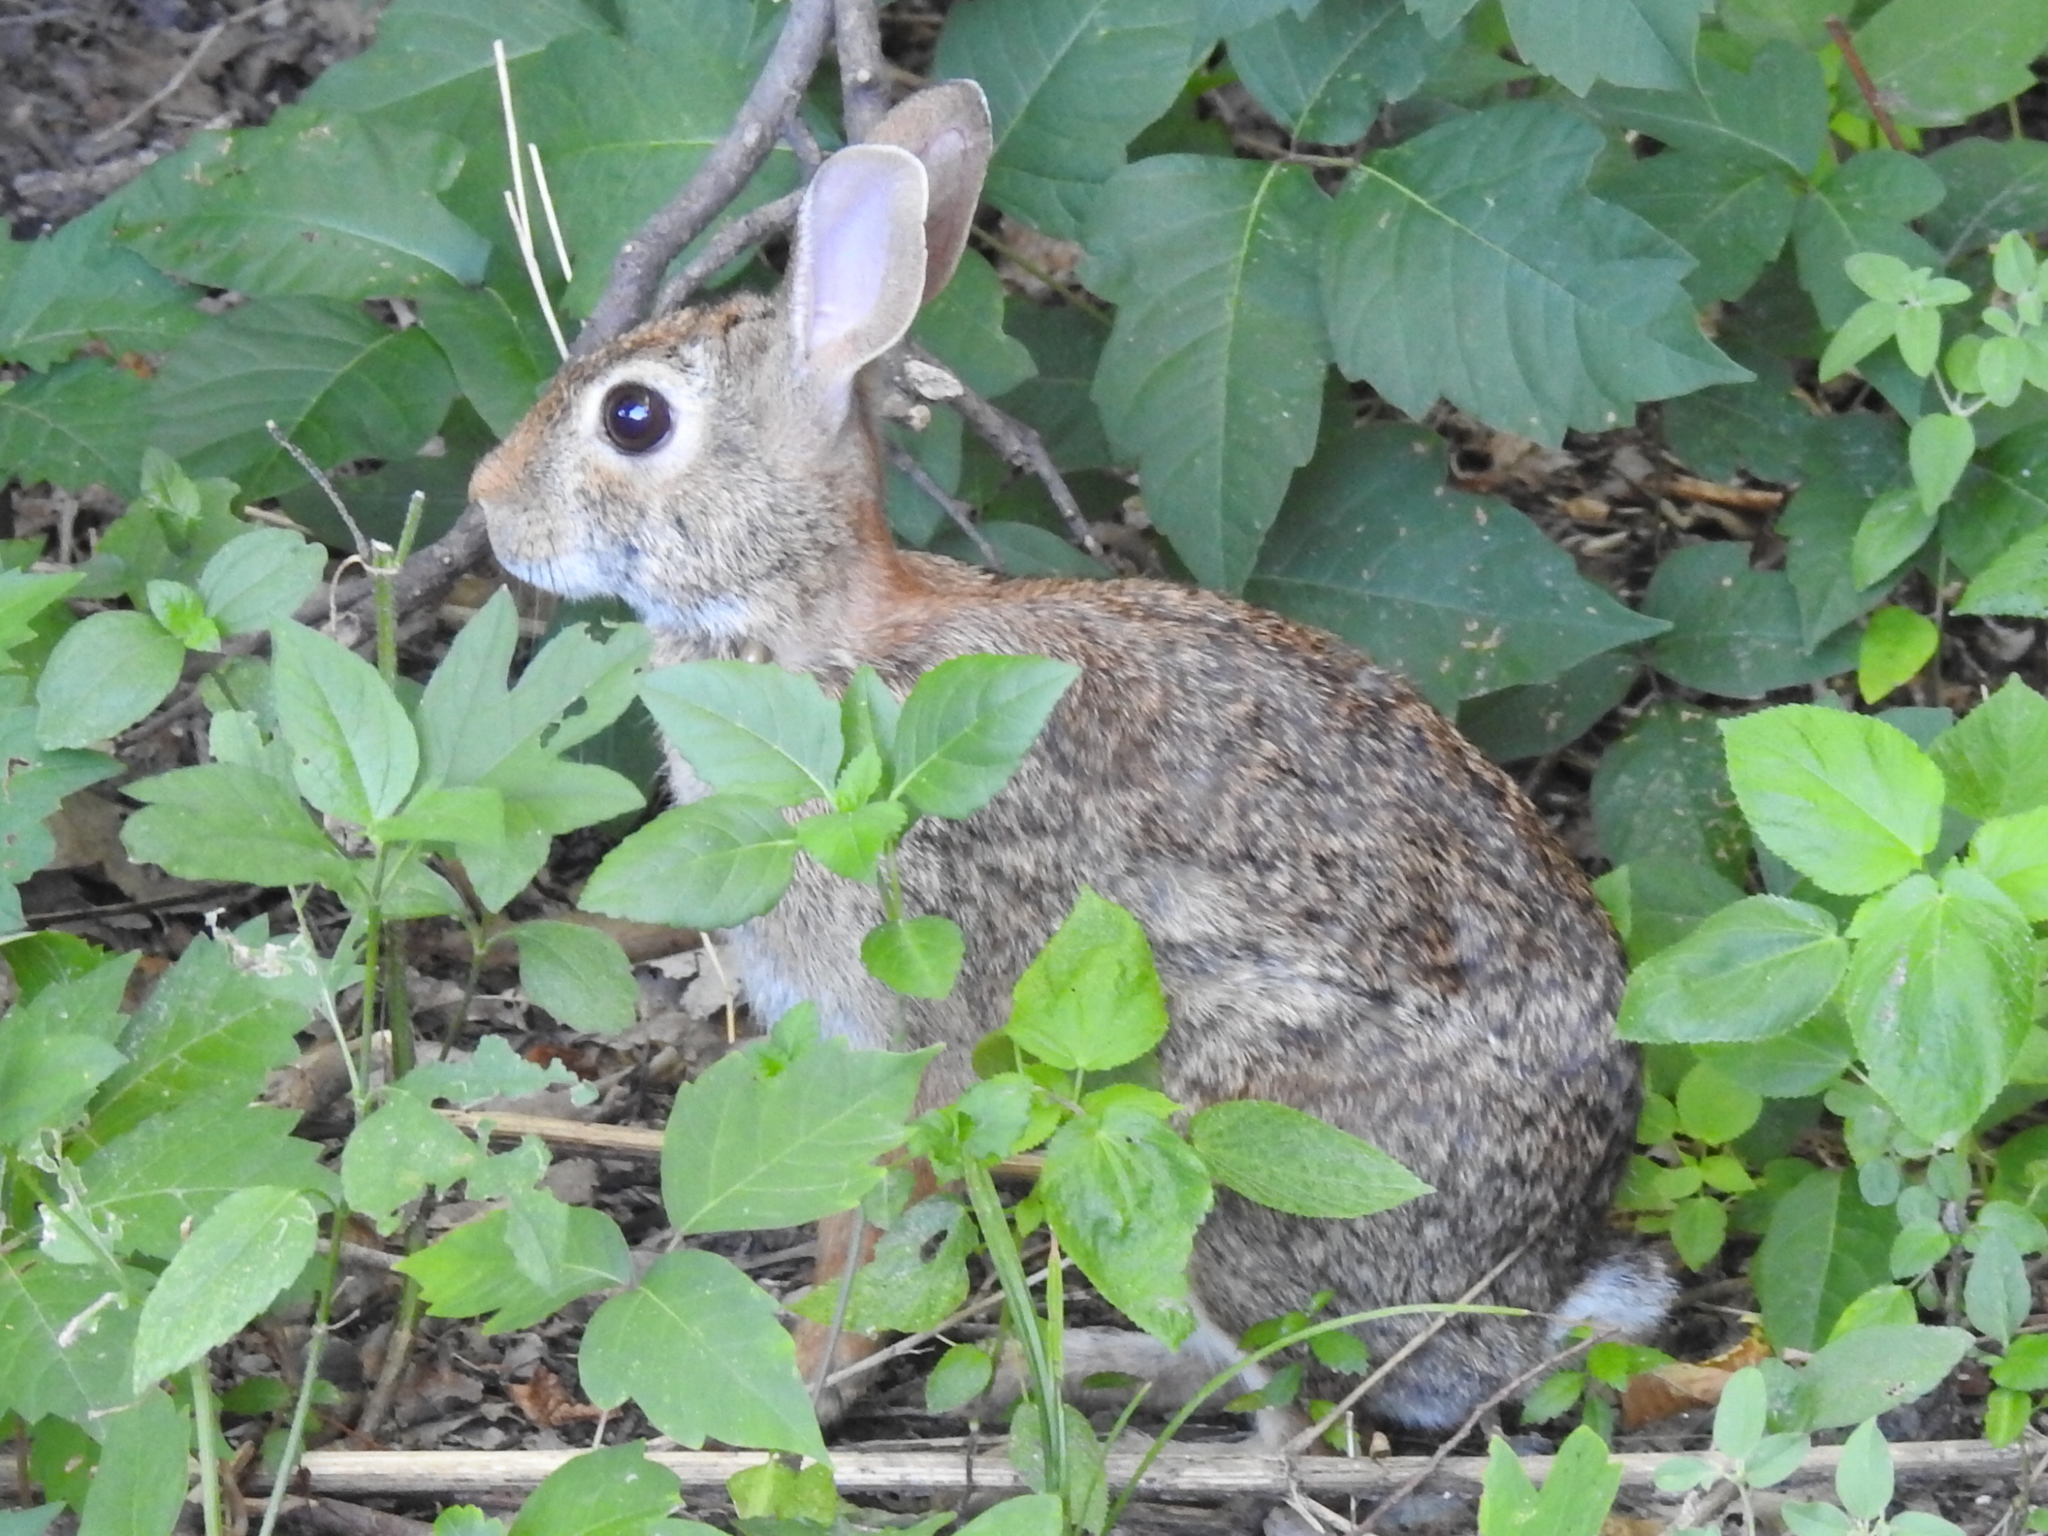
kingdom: Animalia
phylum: Chordata
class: Mammalia
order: Lagomorpha
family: Leporidae
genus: Sylvilagus
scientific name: Sylvilagus floridanus
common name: Eastern cottontail
